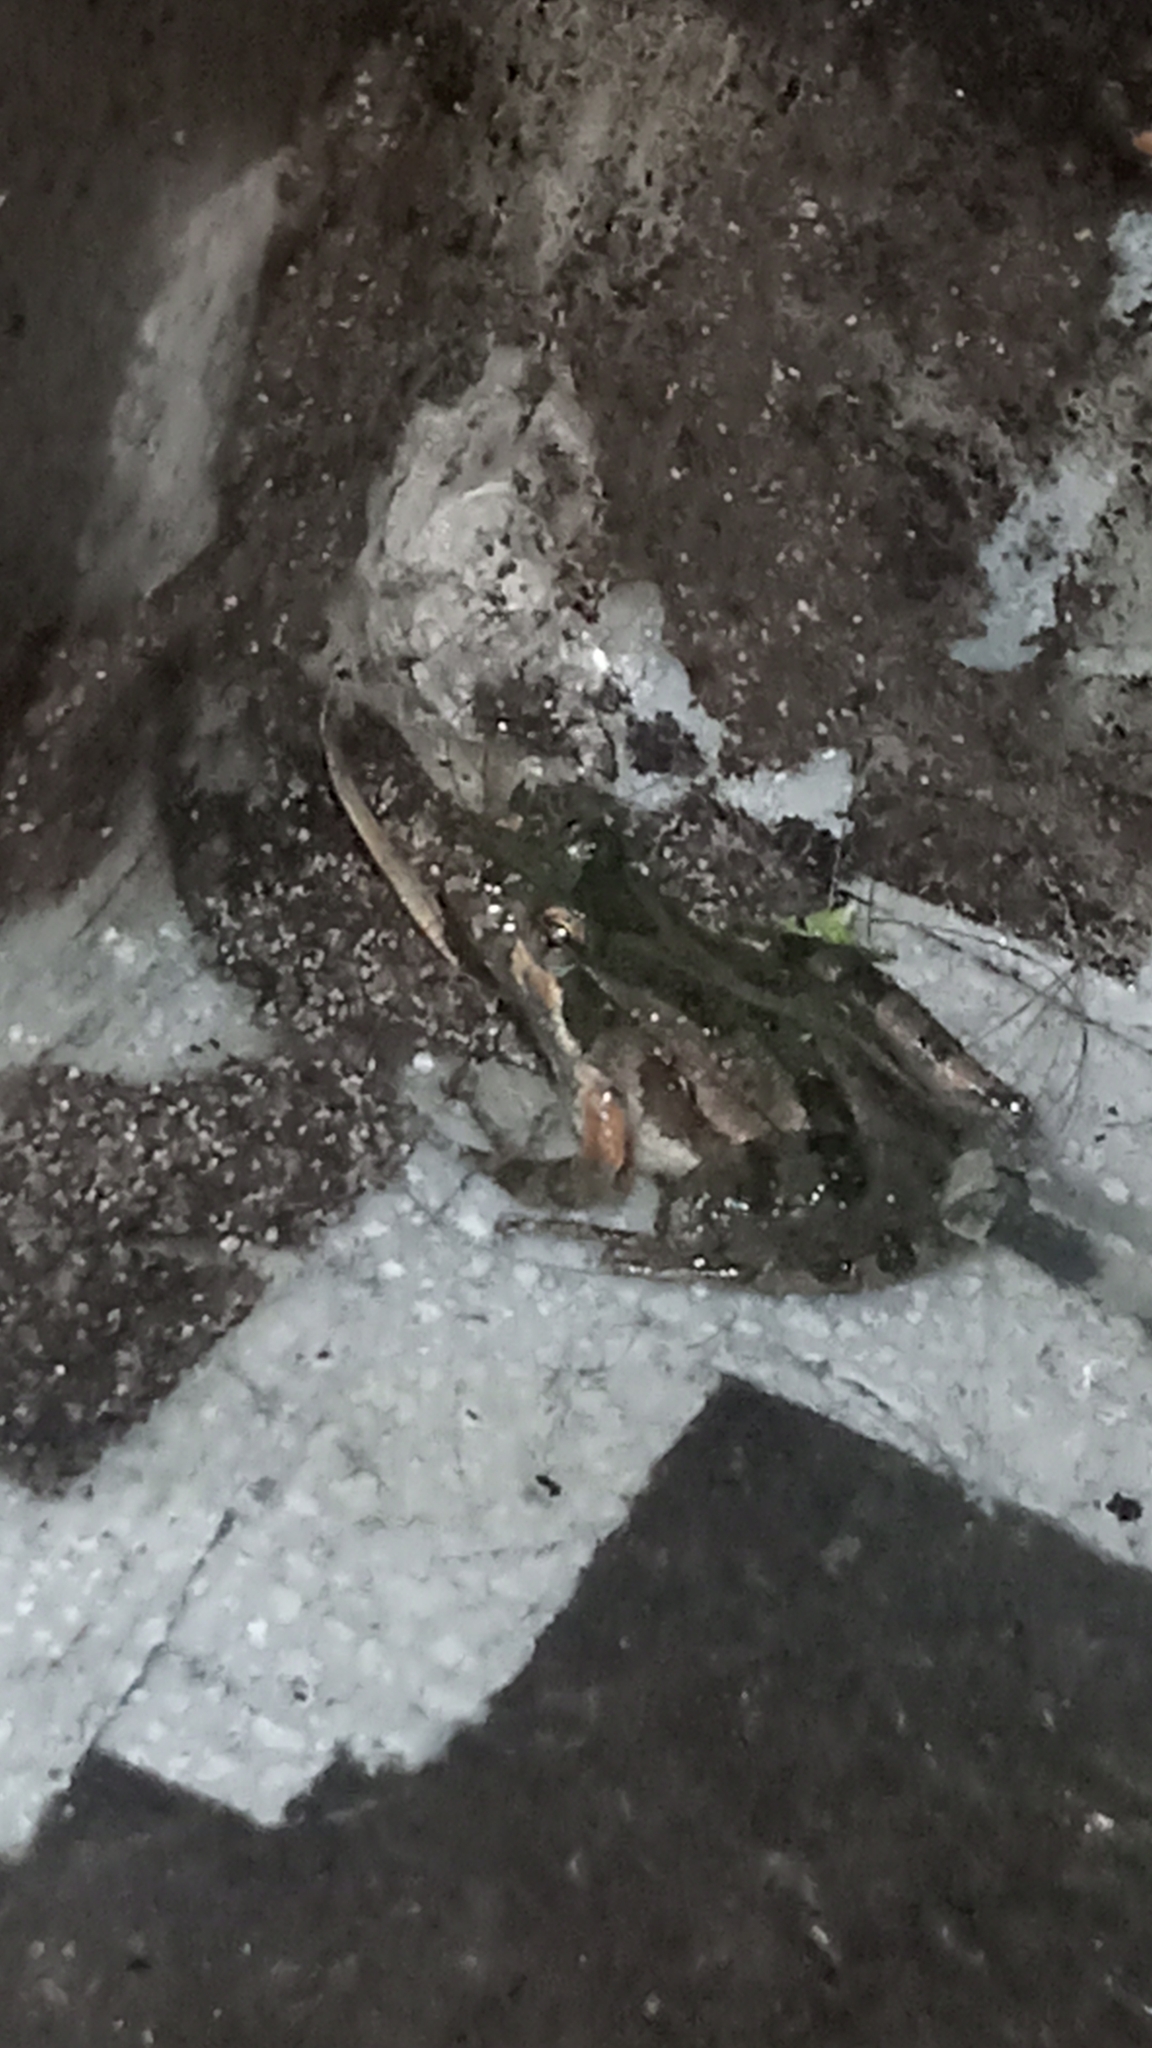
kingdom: Animalia
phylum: Chordata
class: Amphibia
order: Anura
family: Hylidae
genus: Acris
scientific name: Acris gryllus
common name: Southern cricket frog
